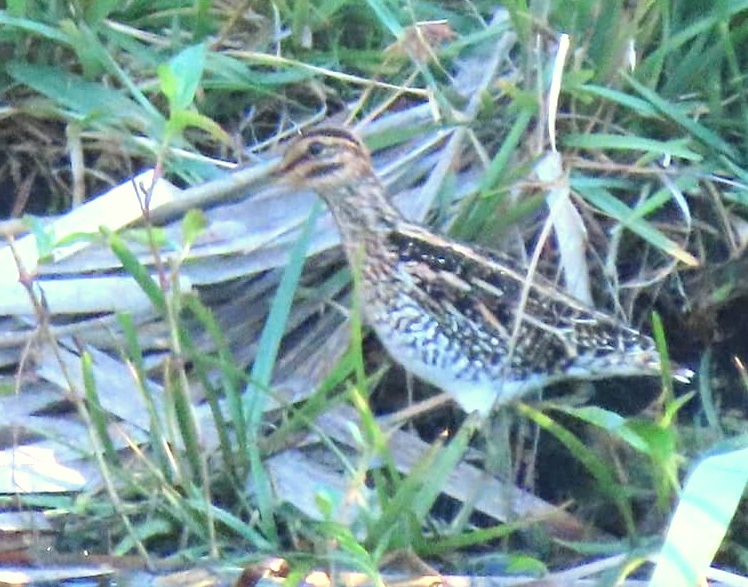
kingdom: Animalia
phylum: Chordata
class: Aves
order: Charadriiformes
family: Scolopacidae
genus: Gallinago
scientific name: Gallinago nigripennis
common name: African snipe
